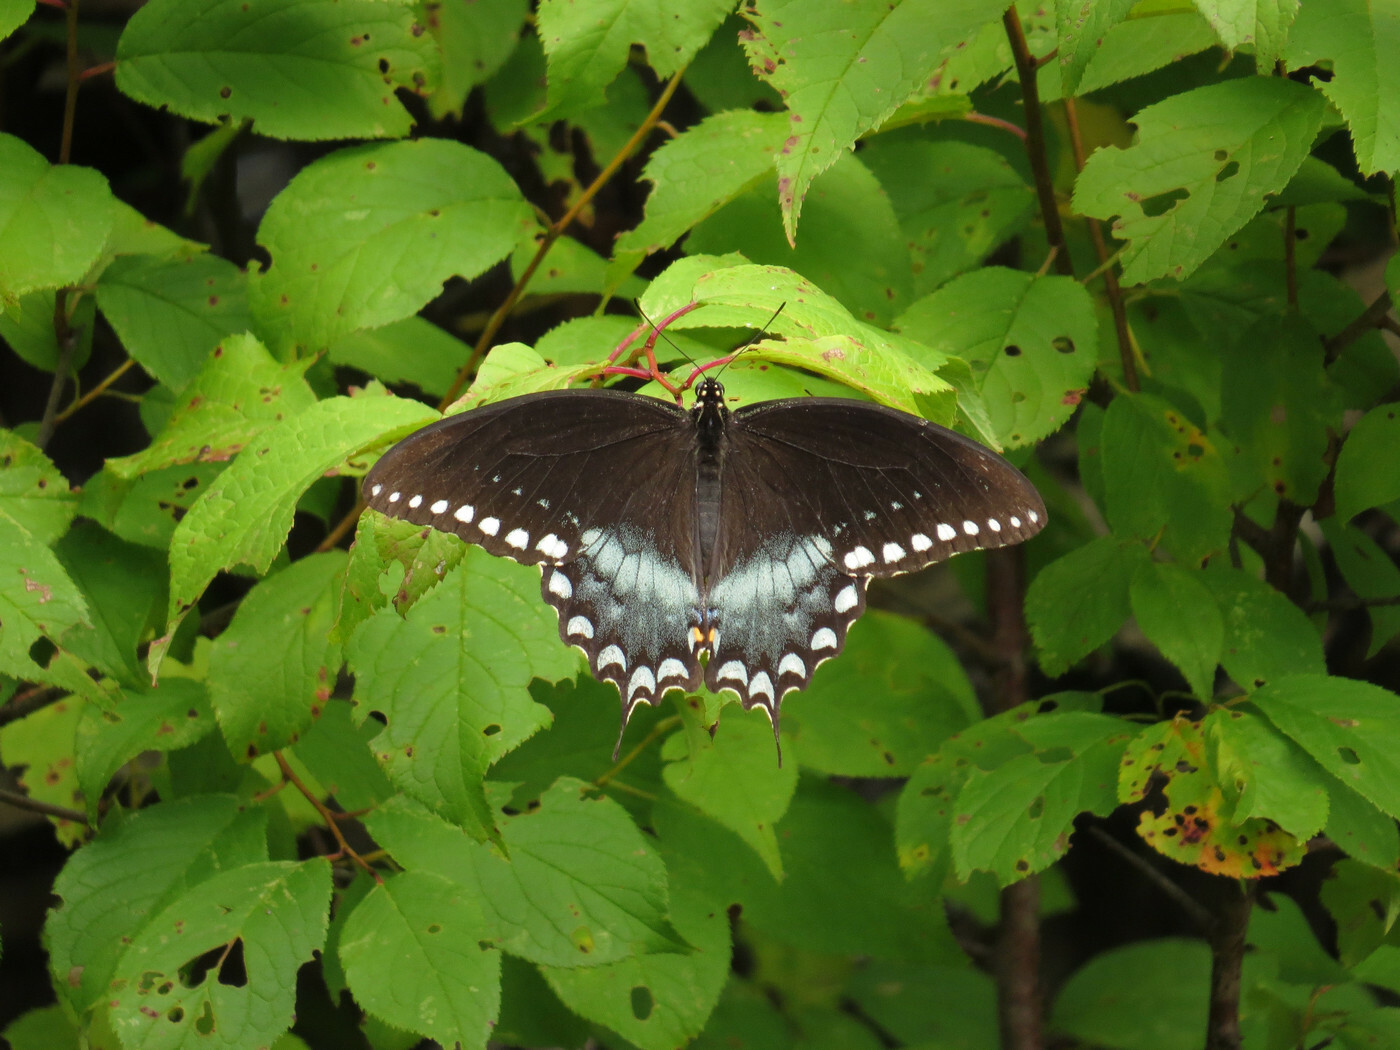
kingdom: Animalia
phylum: Arthropoda
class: Insecta
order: Lepidoptera
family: Papilionidae
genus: Papilio
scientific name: Papilio troilus
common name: Spicebush swallowtail
